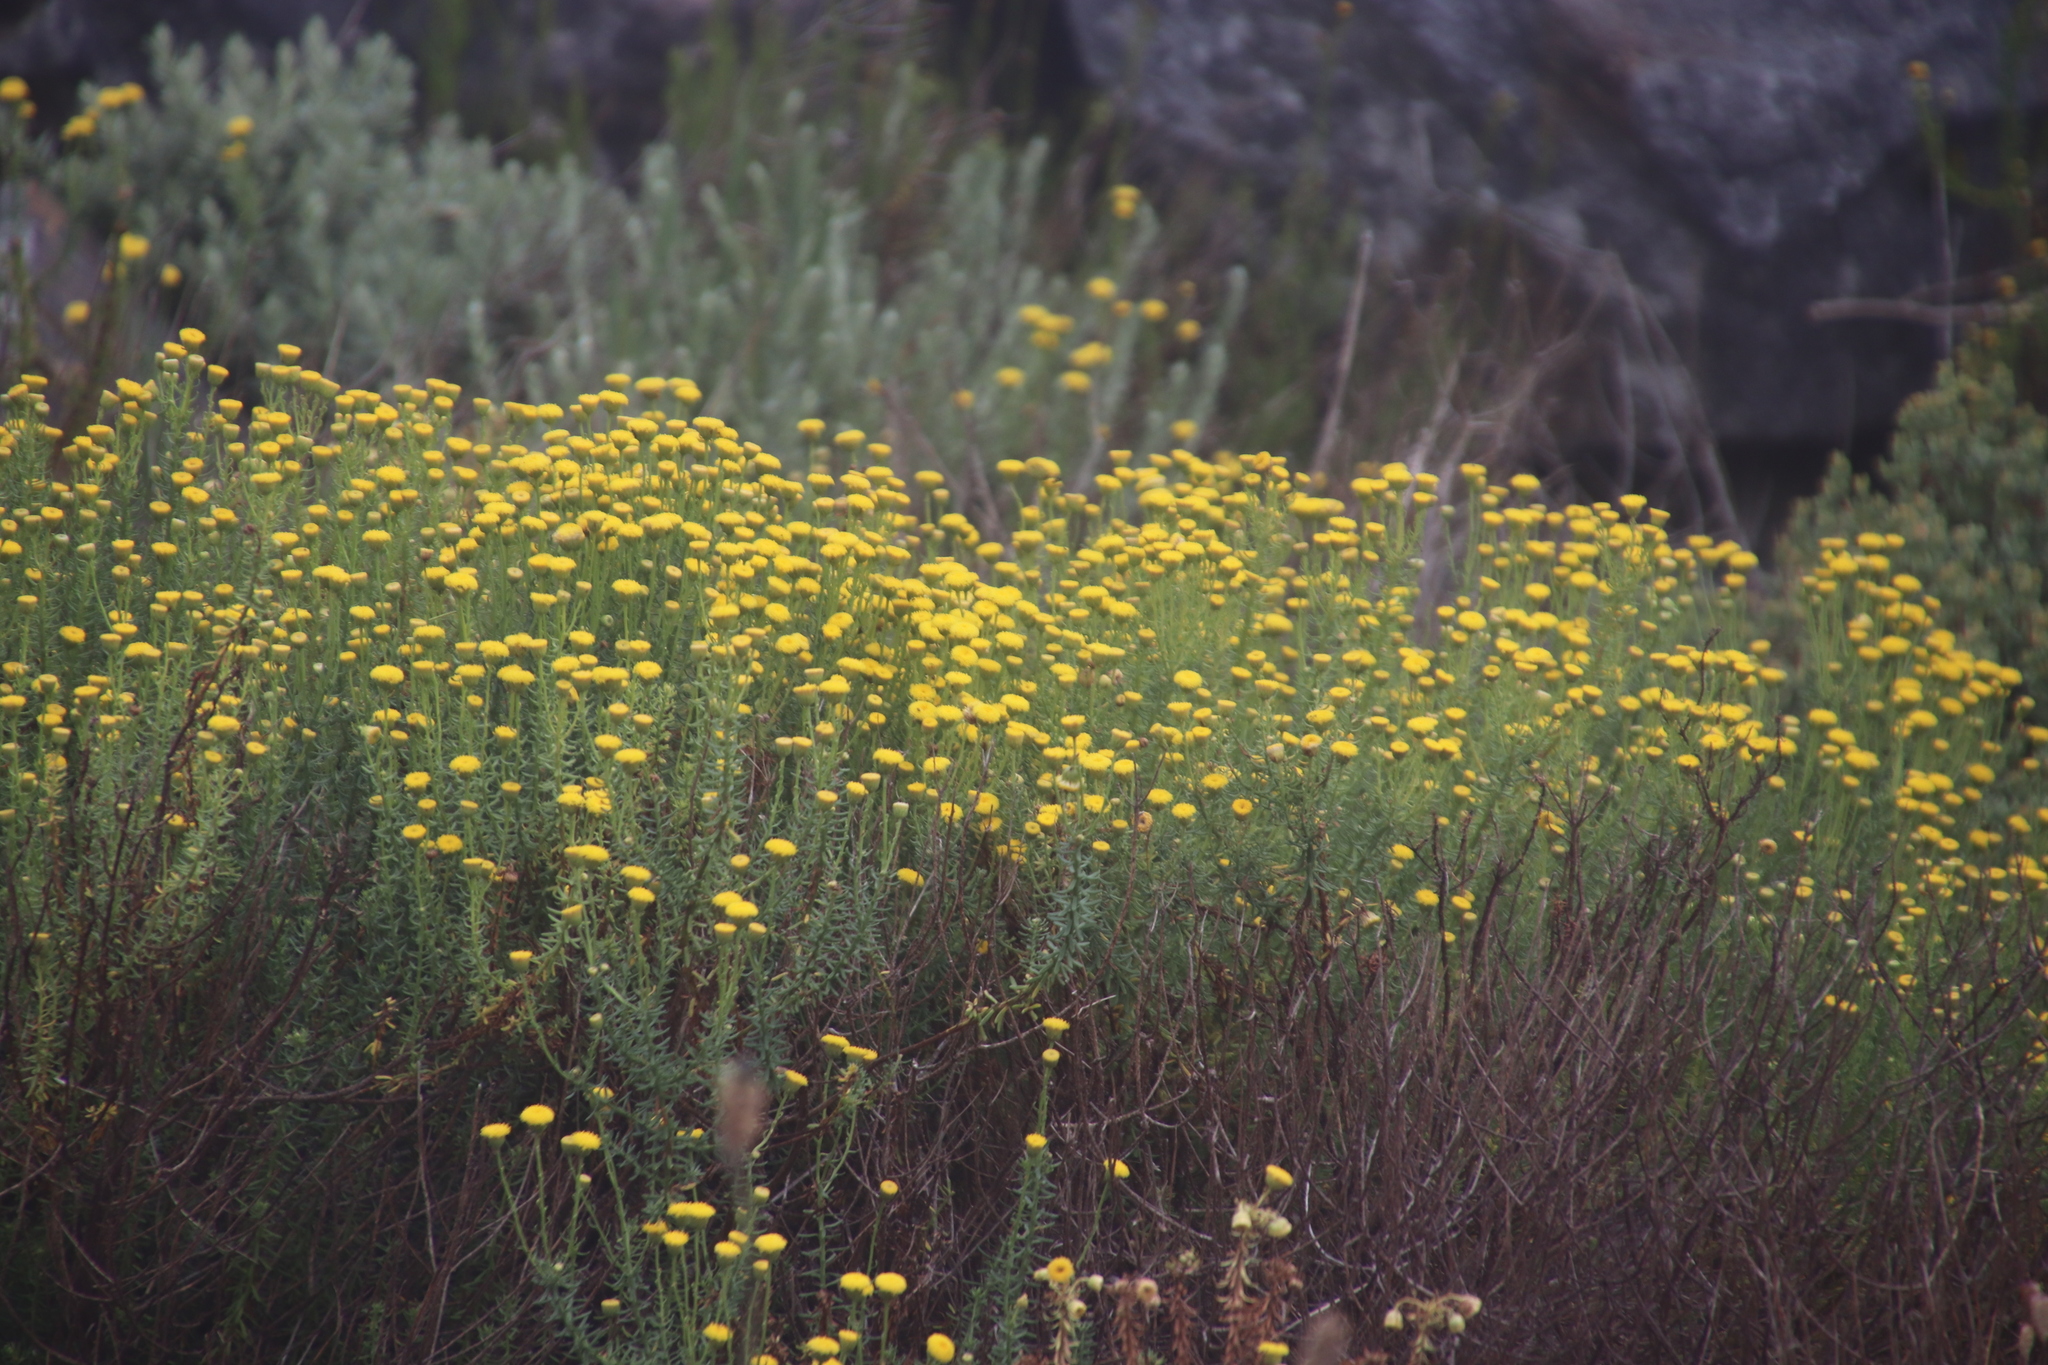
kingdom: Plantae
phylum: Tracheophyta
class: Magnoliopsida
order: Asterales
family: Asteraceae
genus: Chrysocoma
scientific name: Chrysocoma cernua
